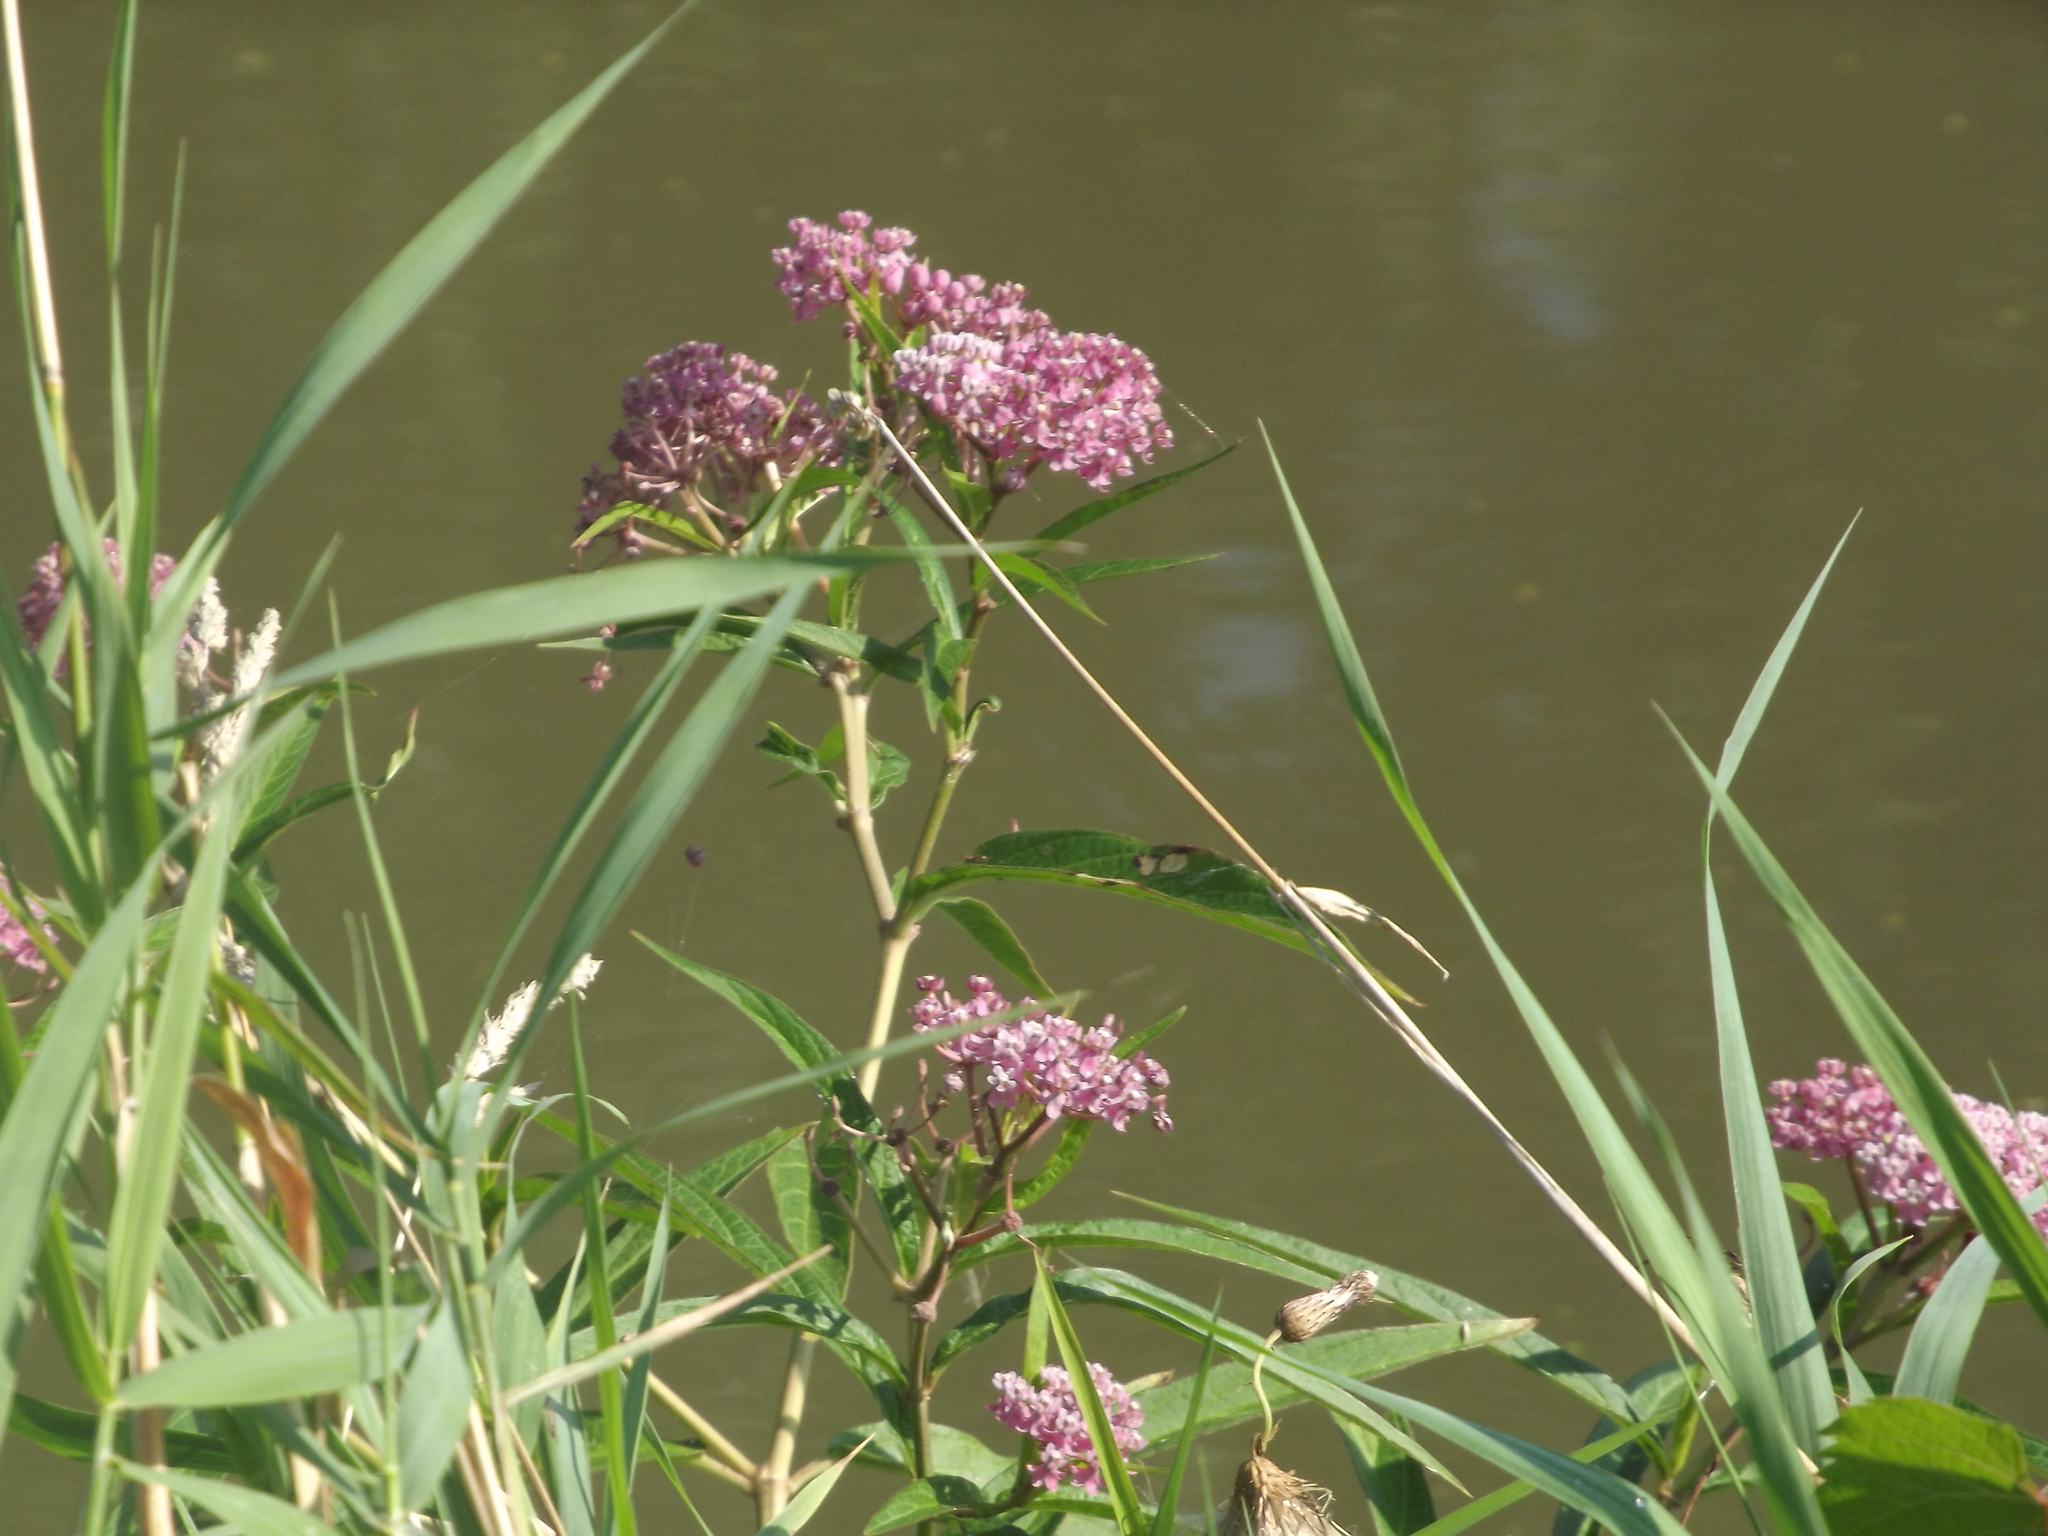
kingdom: Plantae
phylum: Tracheophyta
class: Magnoliopsida
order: Gentianales
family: Apocynaceae
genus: Asclepias
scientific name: Asclepias incarnata
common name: Swamp milkweed
